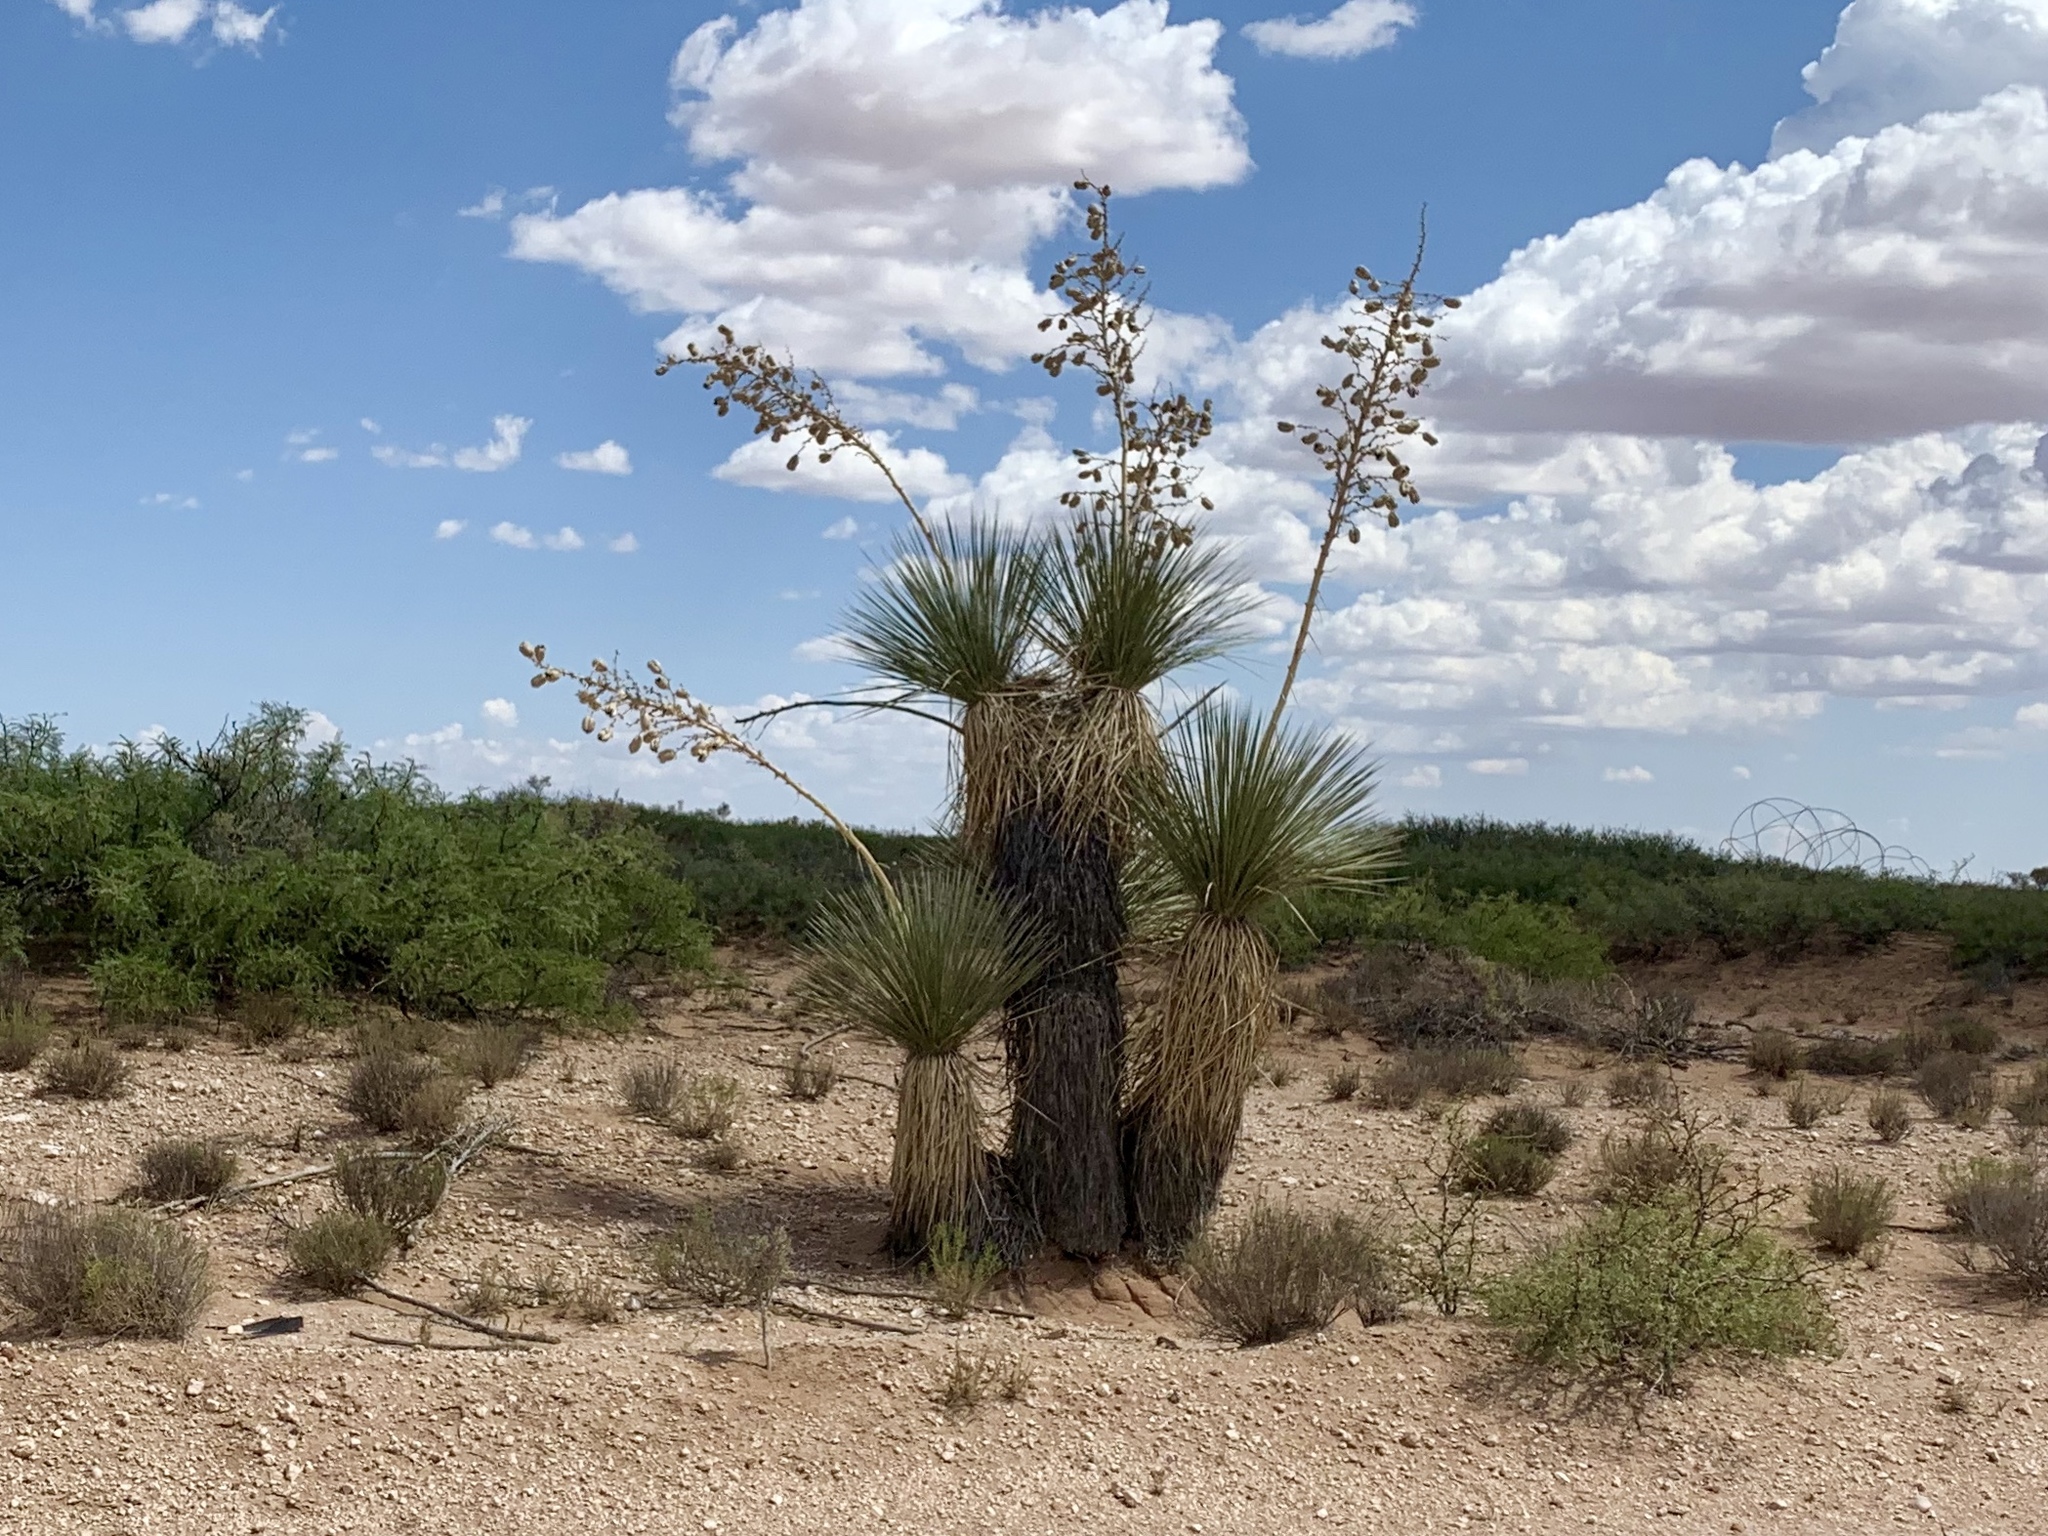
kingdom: Plantae
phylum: Tracheophyta
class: Liliopsida
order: Asparagales
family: Asparagaceae
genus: Yucca
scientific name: Yucca elata
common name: Palmella
